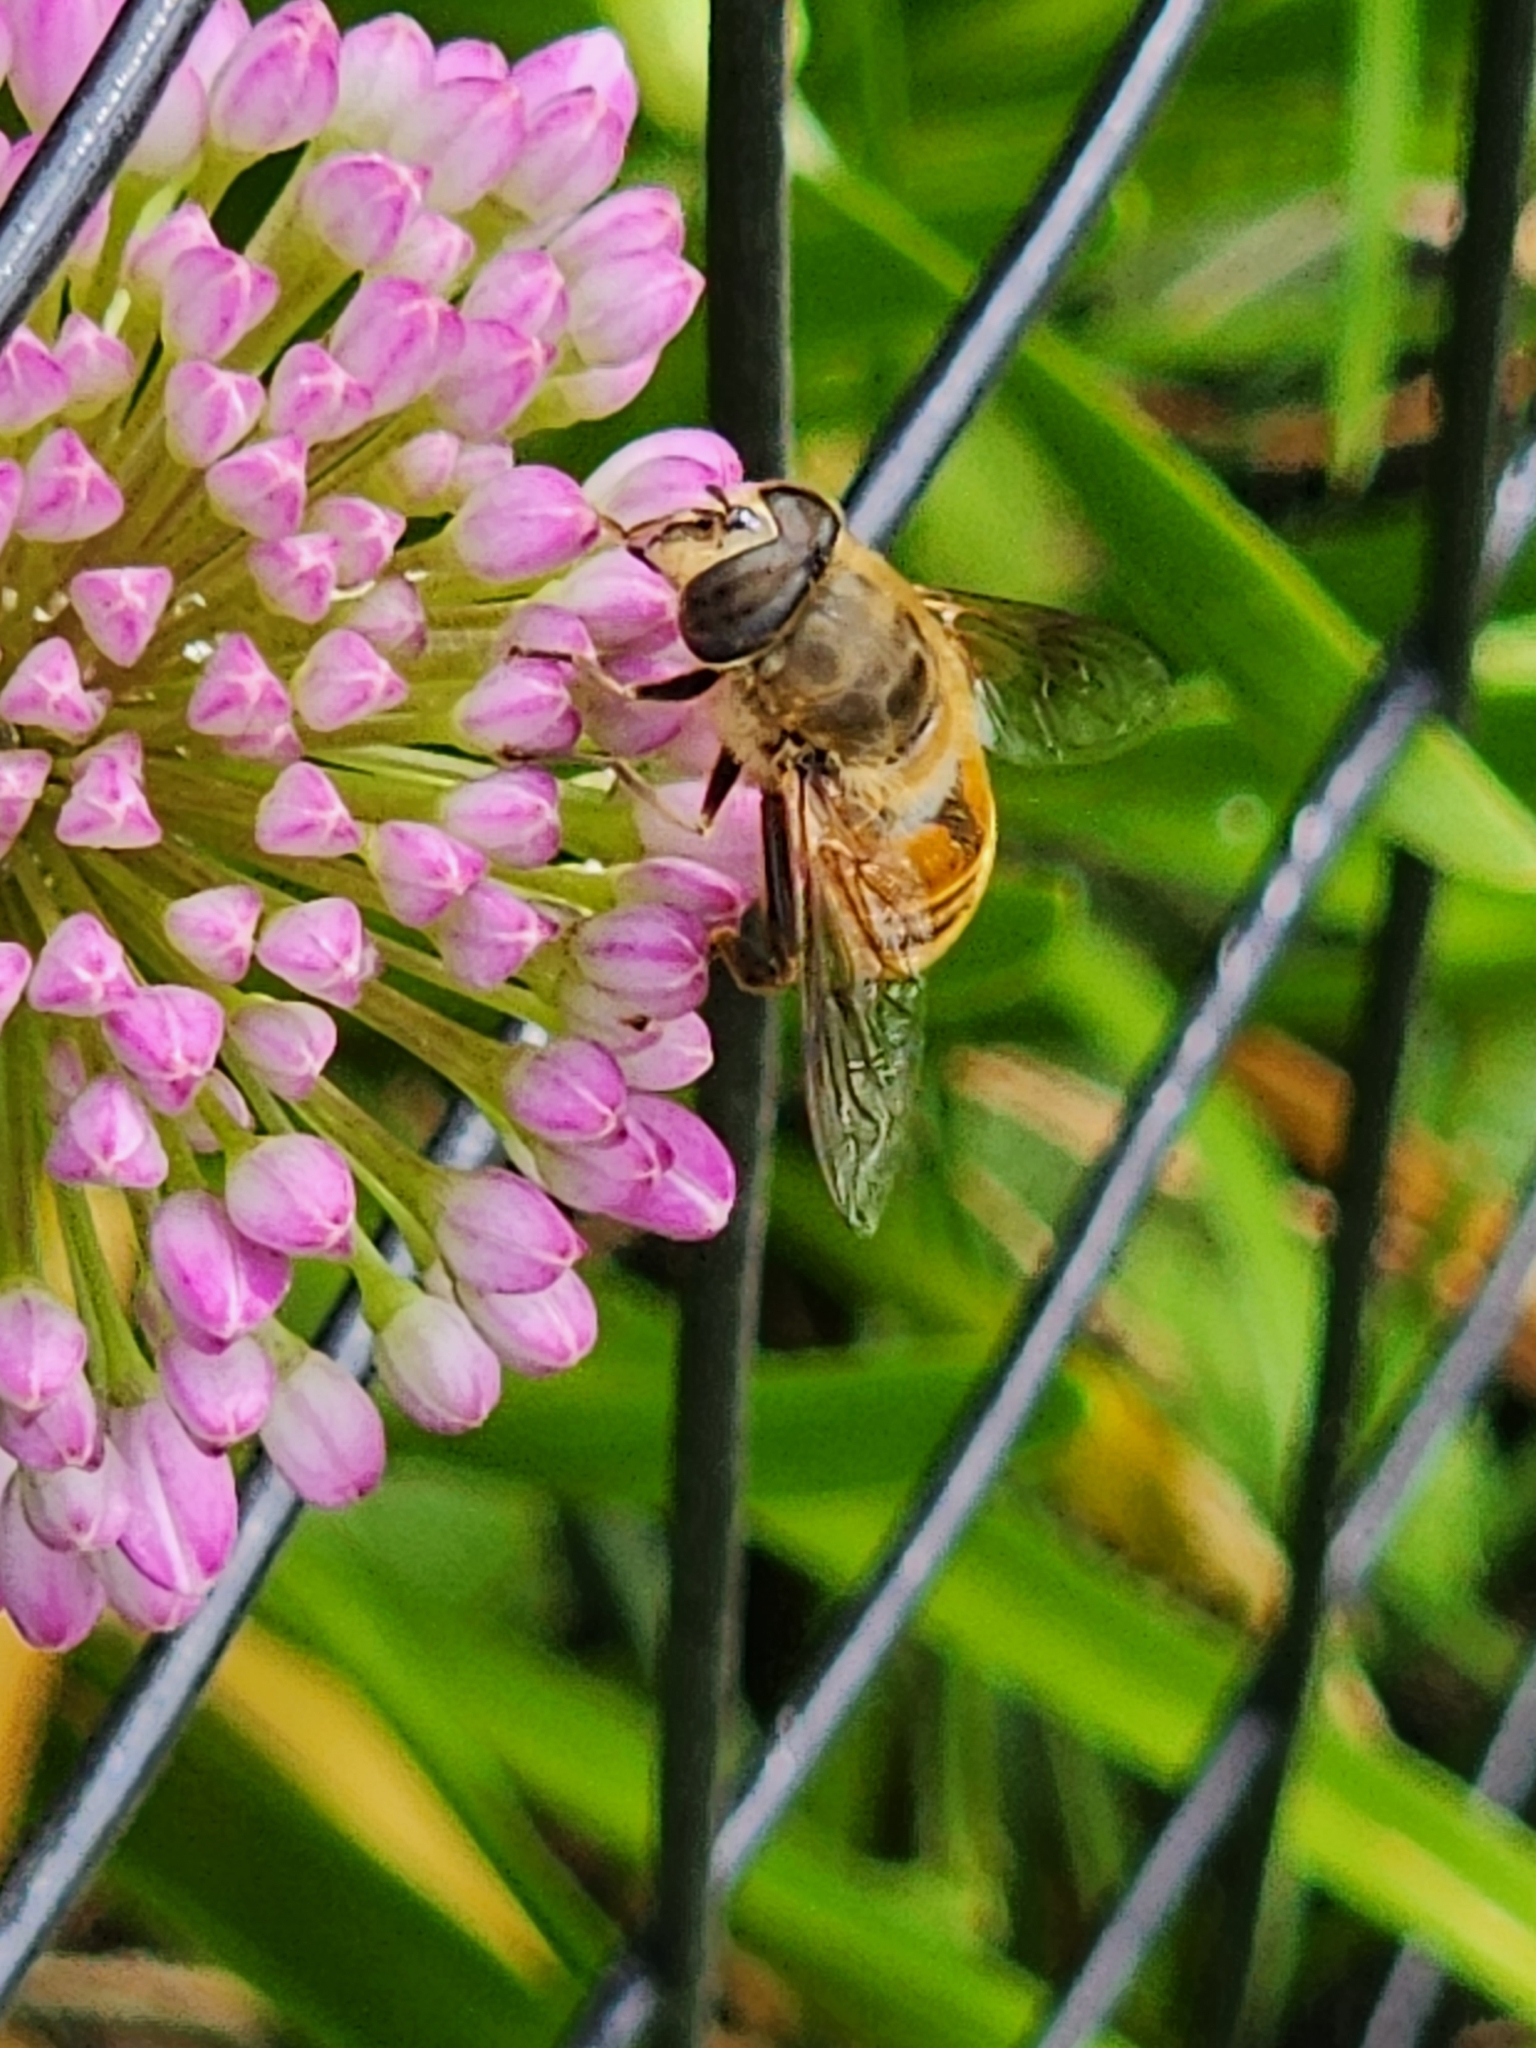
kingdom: Animalia
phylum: Arthropoda
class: Insecta
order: Diptera
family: Syrphidae
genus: Eristalis
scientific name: Eristalis tenax
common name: Drone fly
